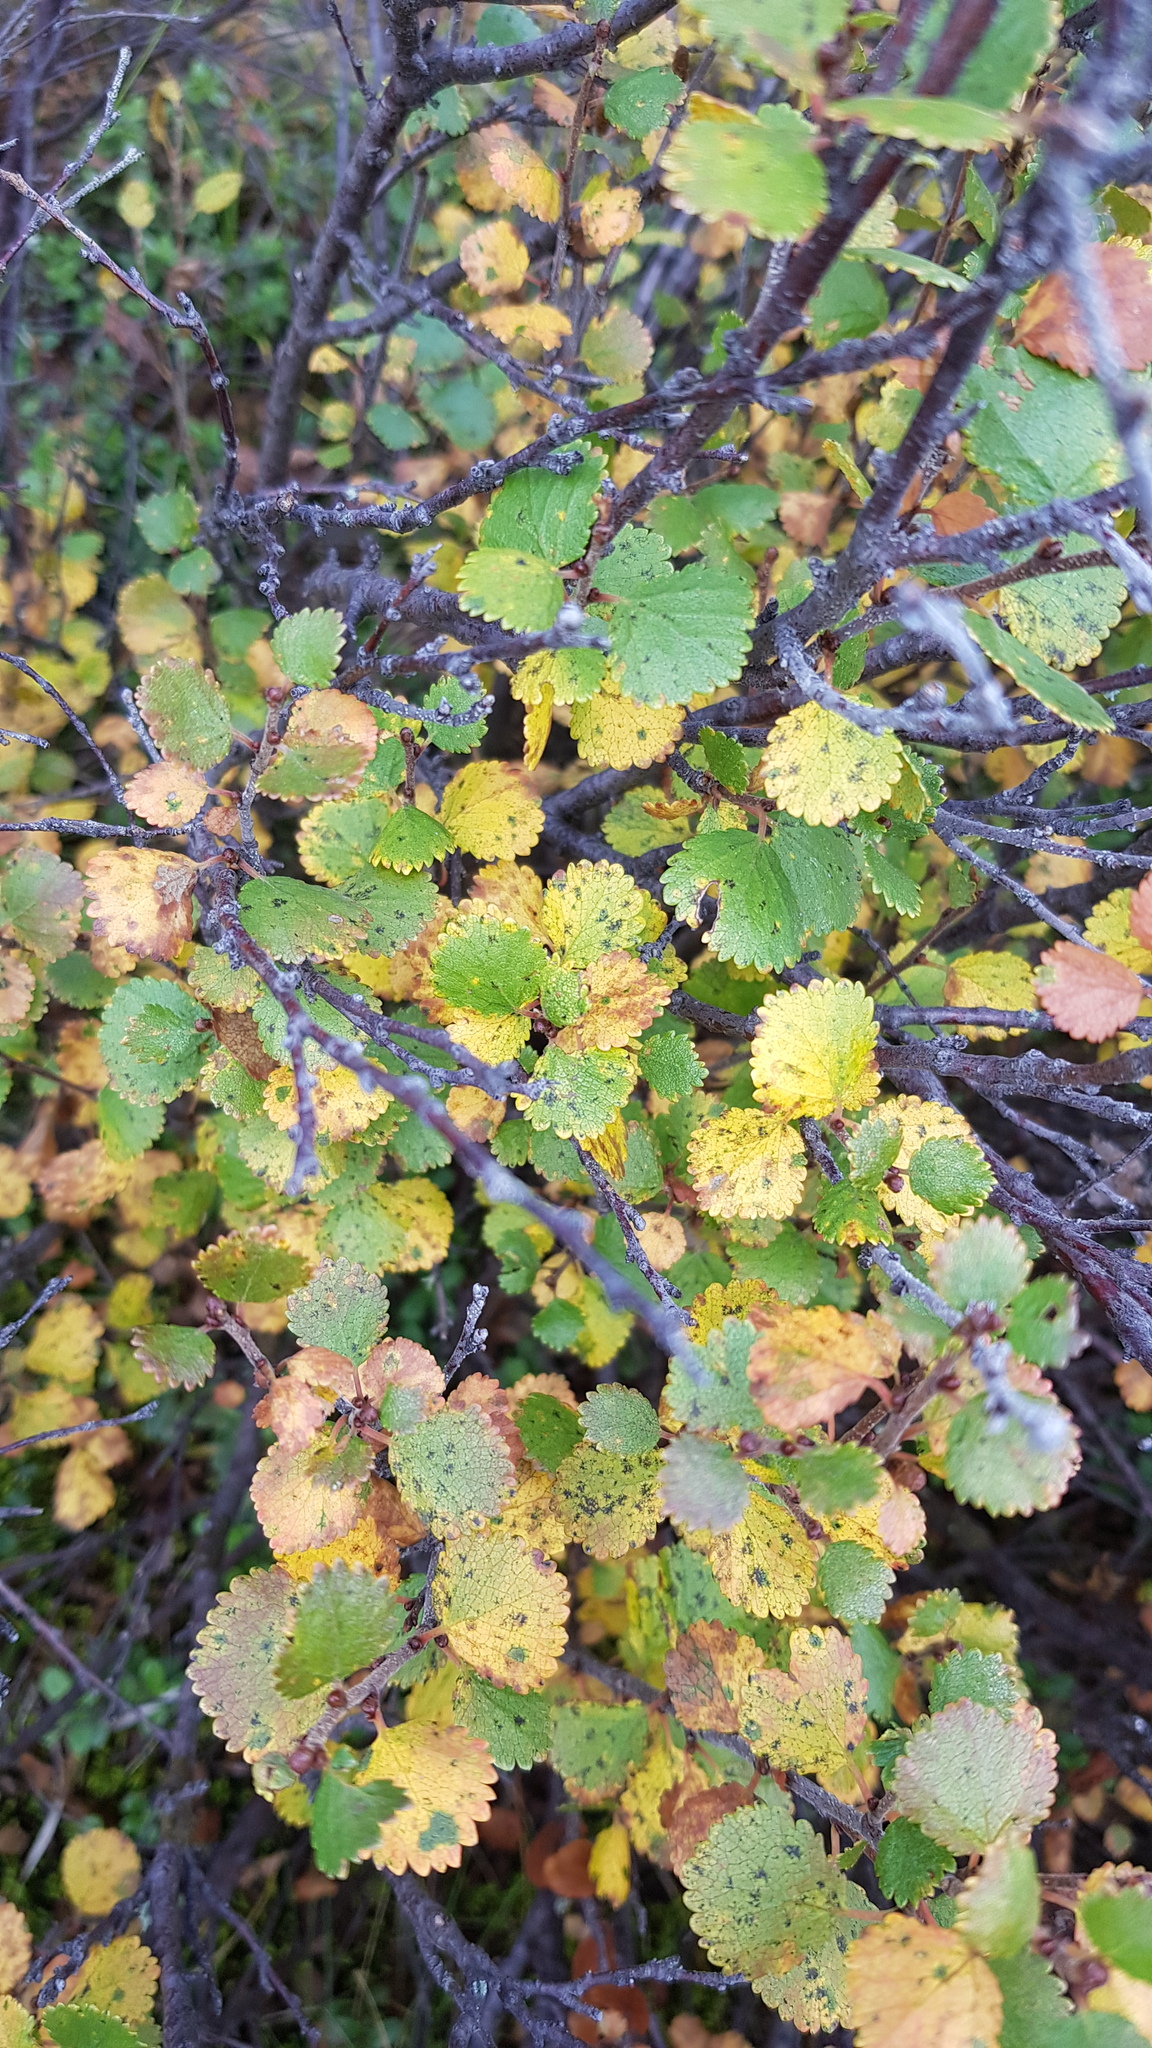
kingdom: Plantae
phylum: Tracheophyta
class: Magnoliopsida
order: Fagales
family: Betulaceae
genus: Betula
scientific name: Betula glandulosa
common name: Dwarf birch
